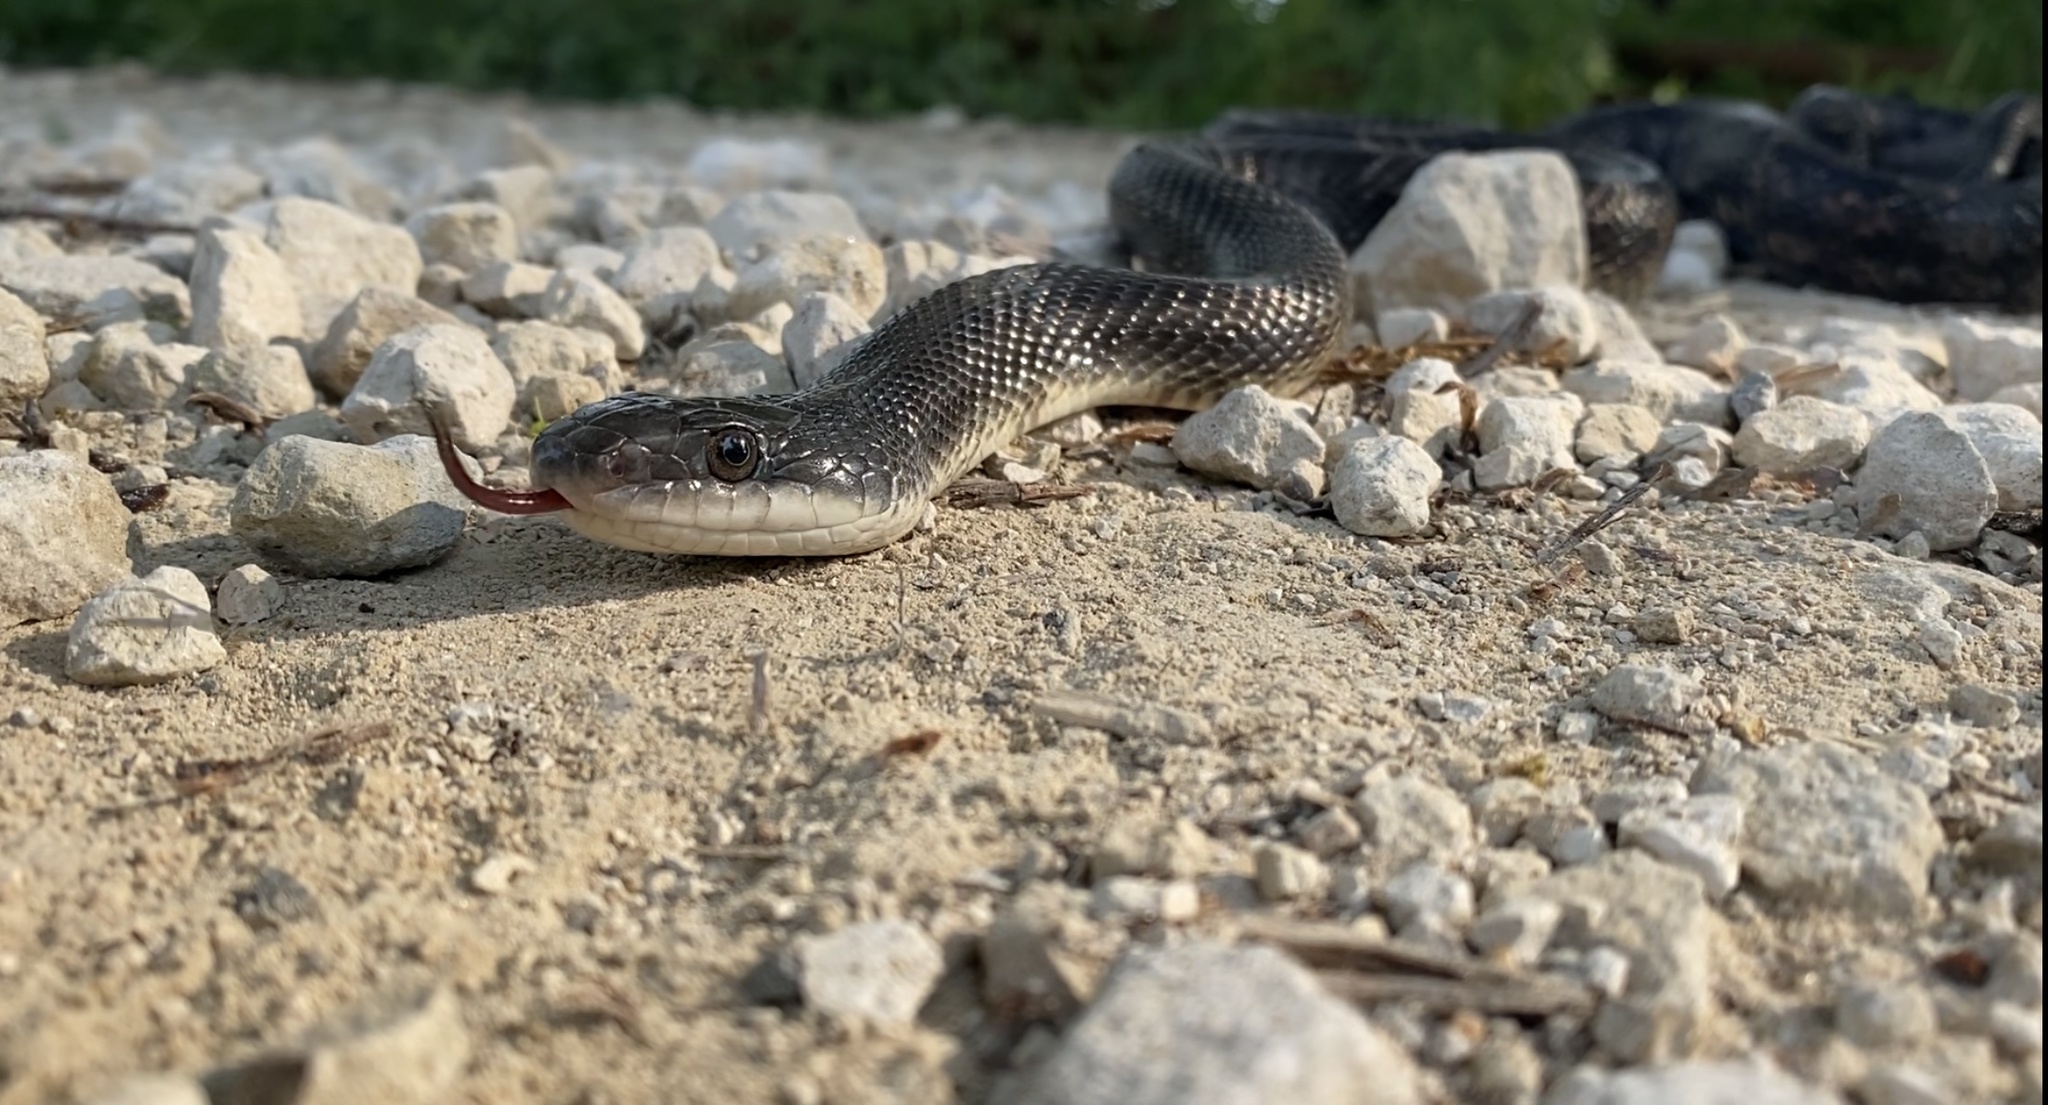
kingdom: Animalia
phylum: Chordata
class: Squamata
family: Colubridae
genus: Pantherophis
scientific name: Pantherophis obsoletus
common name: Black rat snake
